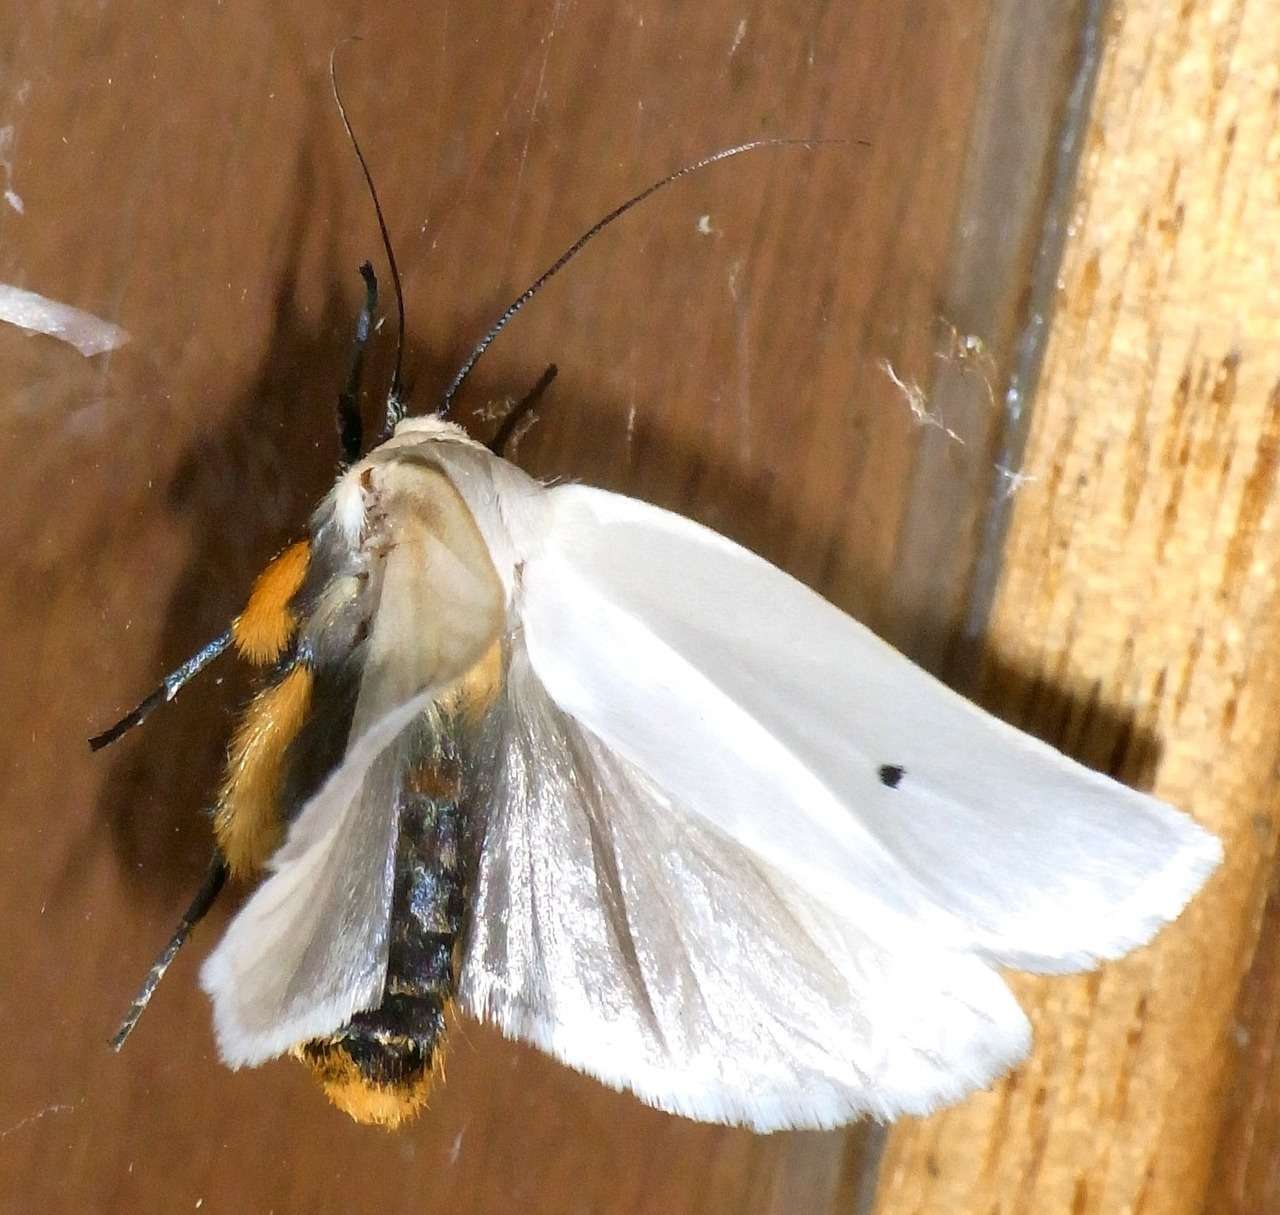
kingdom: Animalia
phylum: Arthropoda
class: Insecta
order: Lepidoptera
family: Xyloryctidae
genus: Maroga
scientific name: Maroga melanostigma
